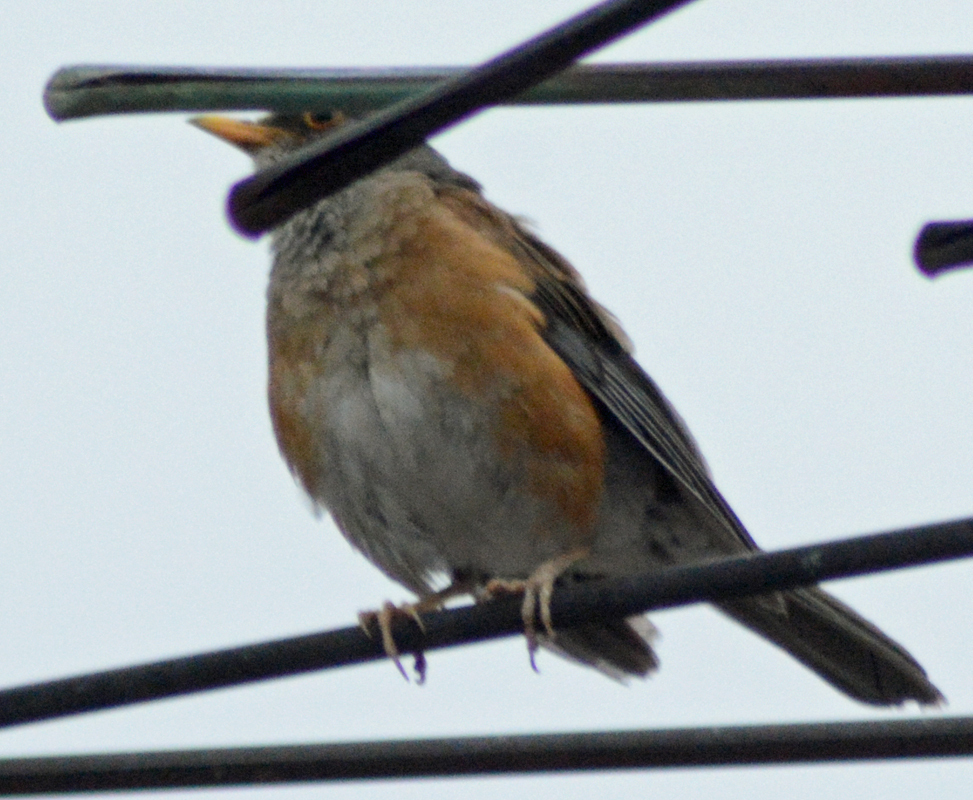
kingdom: Animalia
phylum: Chordata
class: Aves
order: Passeriformes
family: Turdidae
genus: Turdus
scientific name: Turdus rufopalliatus
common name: Rufous-backed robin
